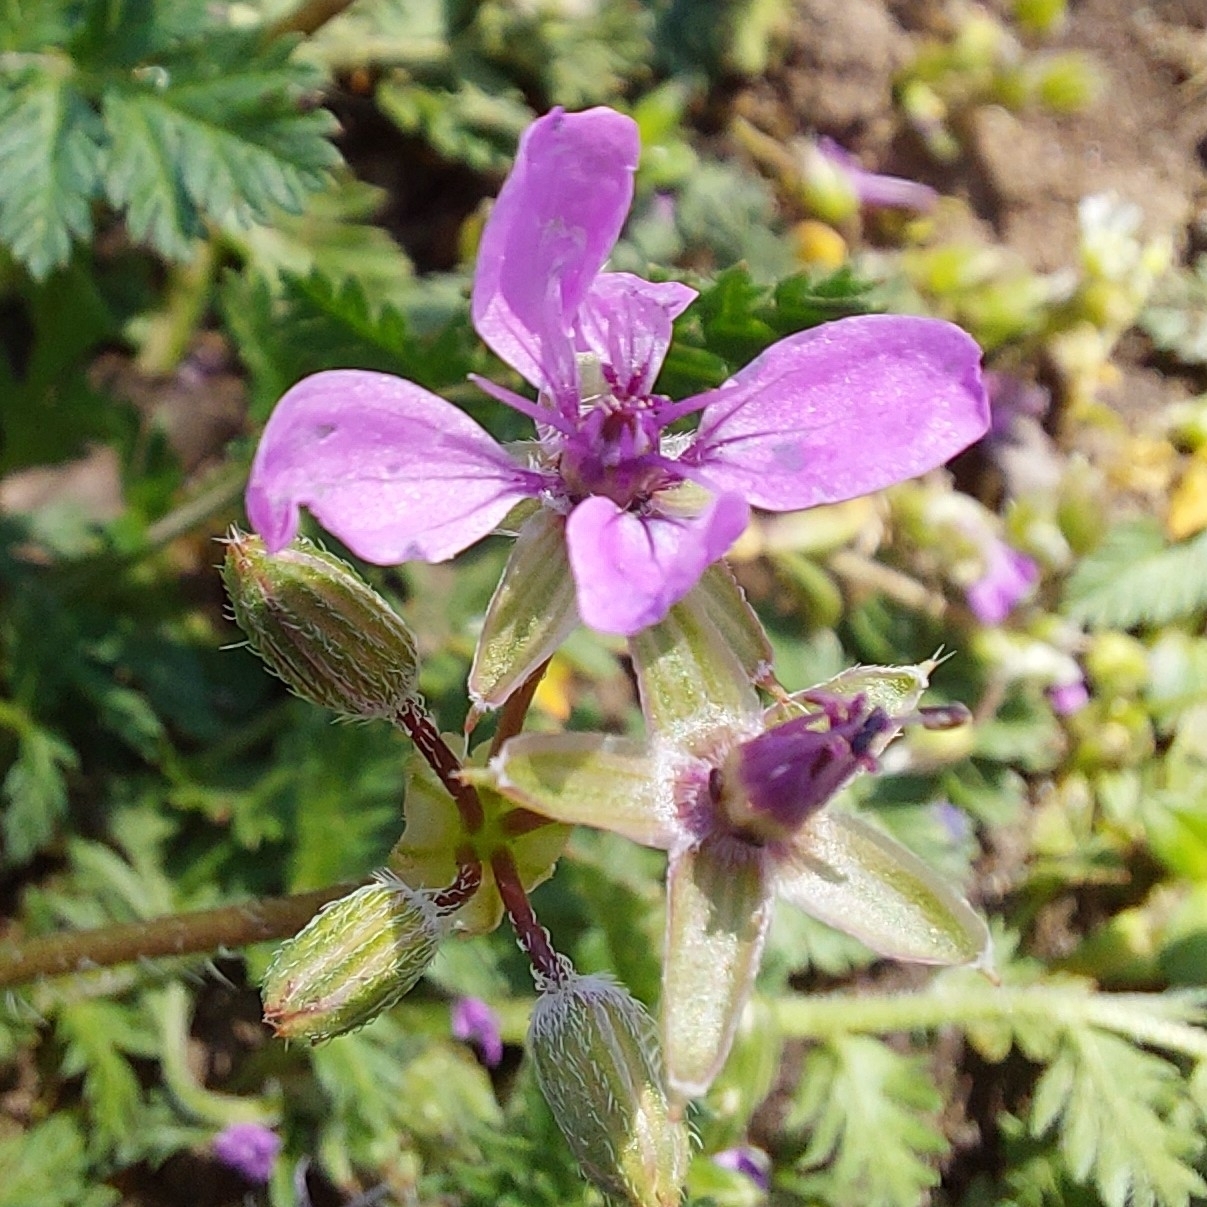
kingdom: Plantae
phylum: Tracheophyta
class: Magnoliopsida
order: Geraniales
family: Geraniaceae
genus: Erodium
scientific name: Erodium cicutarium
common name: Common stork's-bill
